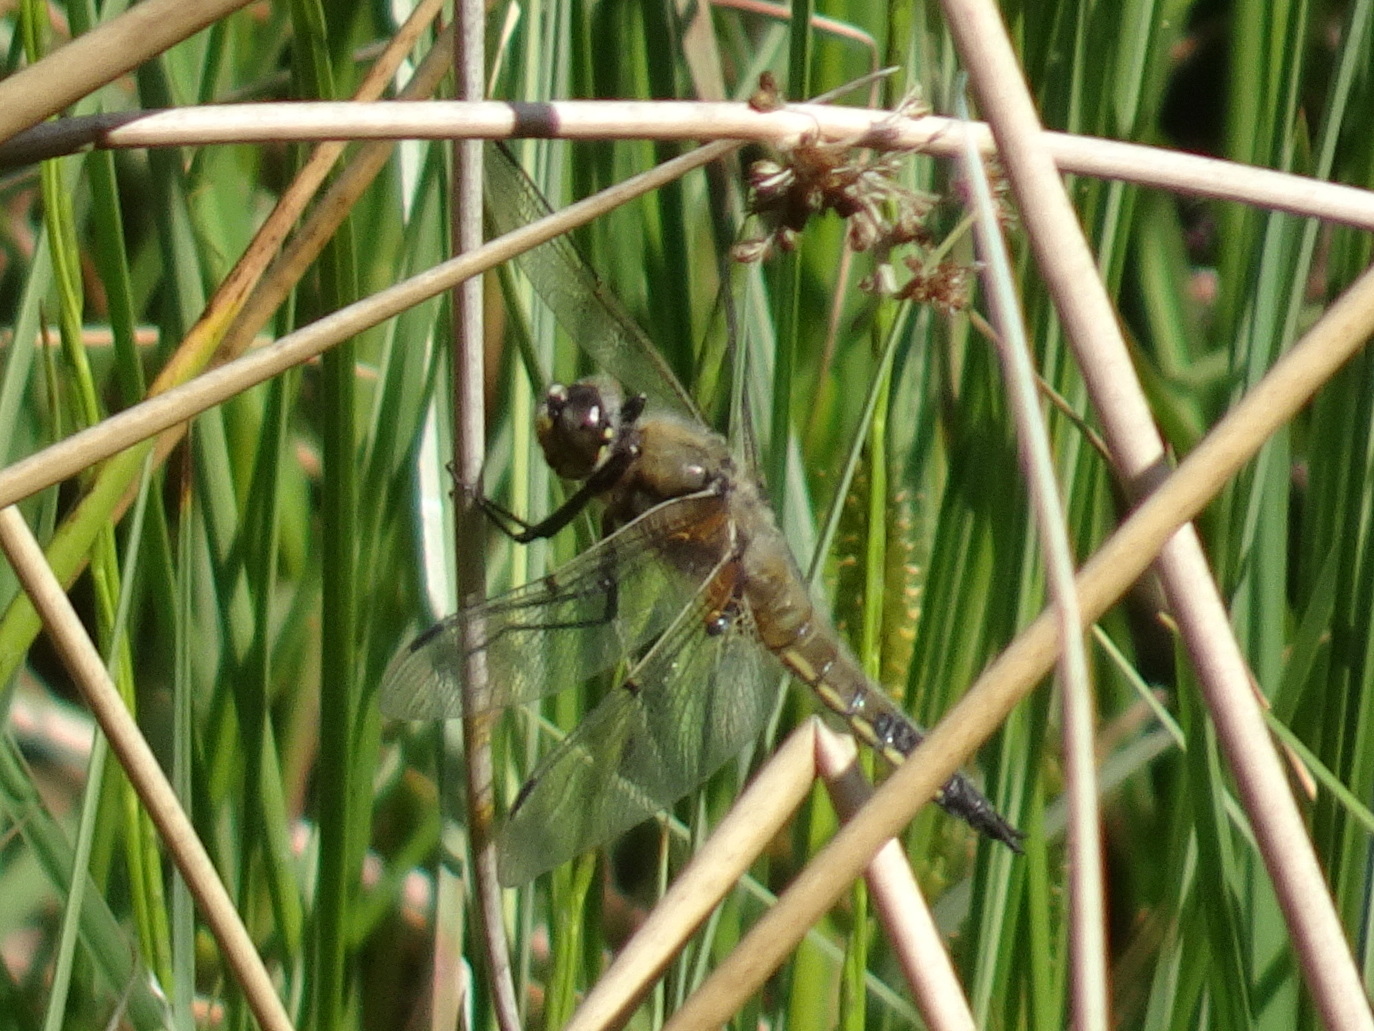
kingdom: Animalia
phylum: Arthropoda
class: Insecta
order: Odonata
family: Libellulidae
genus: Libellula
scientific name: Libellula quadrimaculata
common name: Four-spotted chaser
